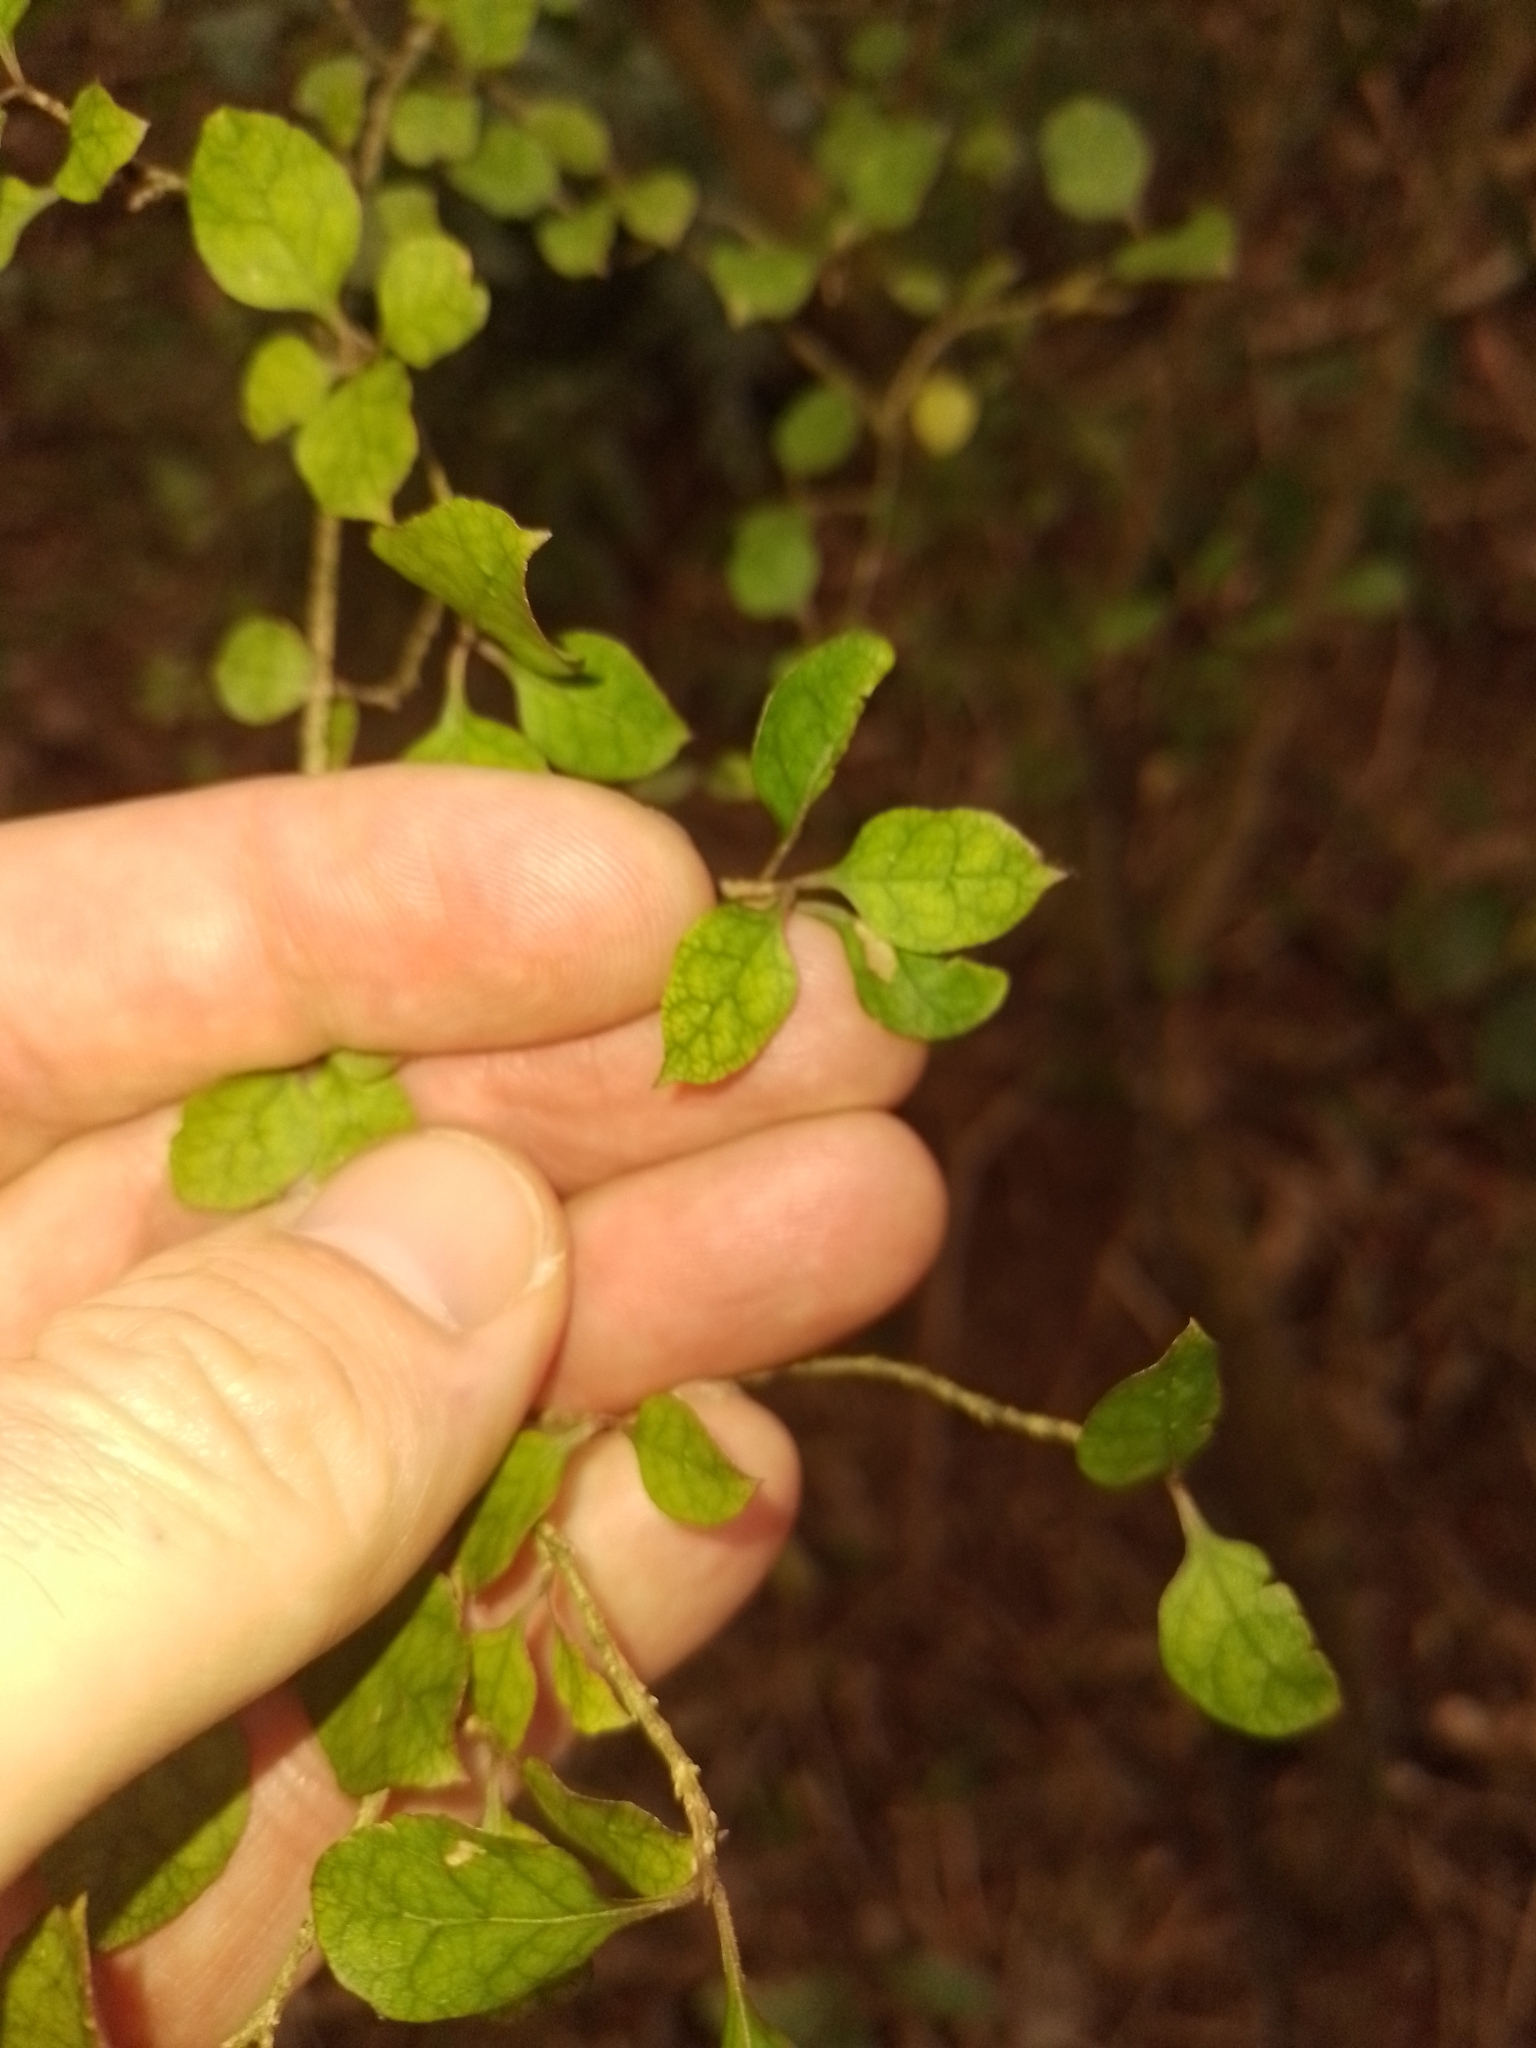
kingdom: Plantae
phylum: Tracheophyta
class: Magnoliopsida
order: Gentianales
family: Rubiaceae
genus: Coprosma
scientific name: Coprosma areolata
